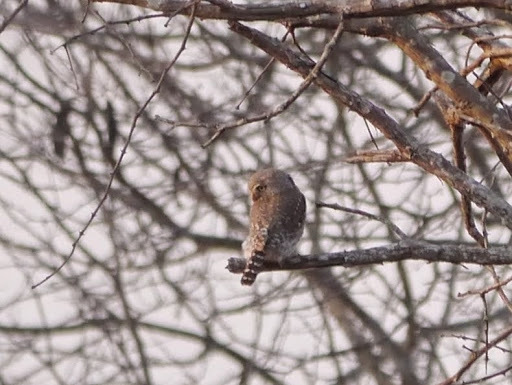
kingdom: Animalia
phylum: Chordata
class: Aves
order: Strigiformes
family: Strigidae
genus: Glaucidium
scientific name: Glaucidium perlatum
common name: Pearl-spotted owlet
